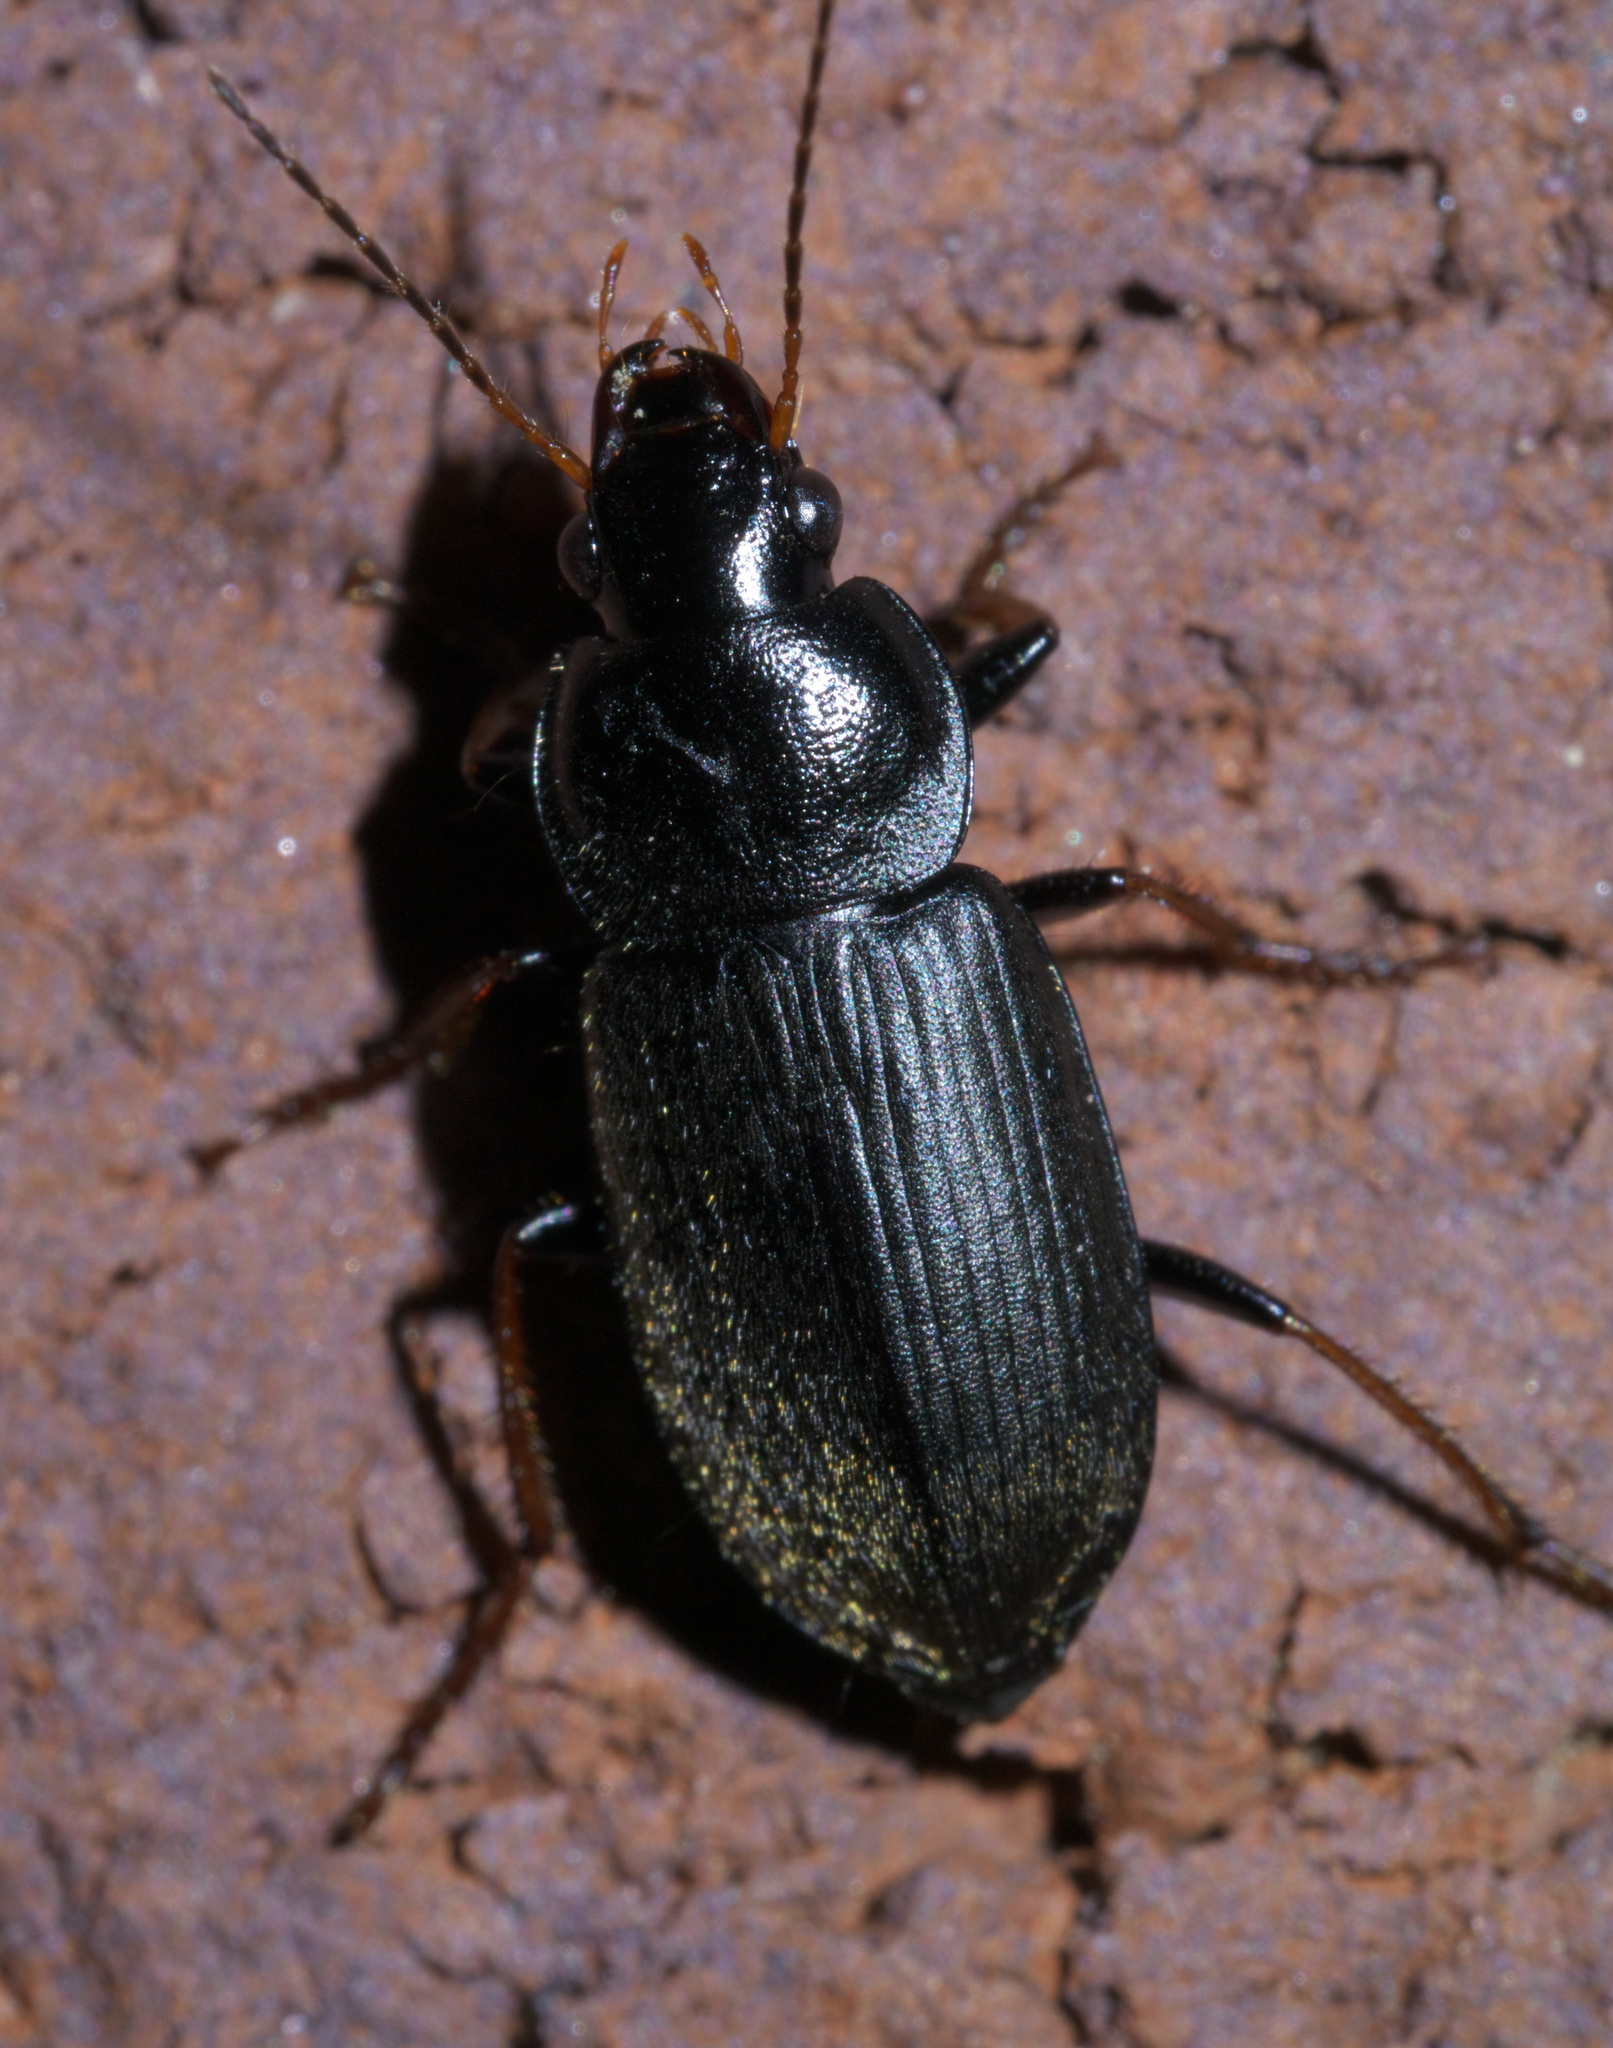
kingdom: Animalia
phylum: Arthropoda
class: Insecta
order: Coleoptera
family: Carabidae
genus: Amphasia
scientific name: Amphasia sericea
